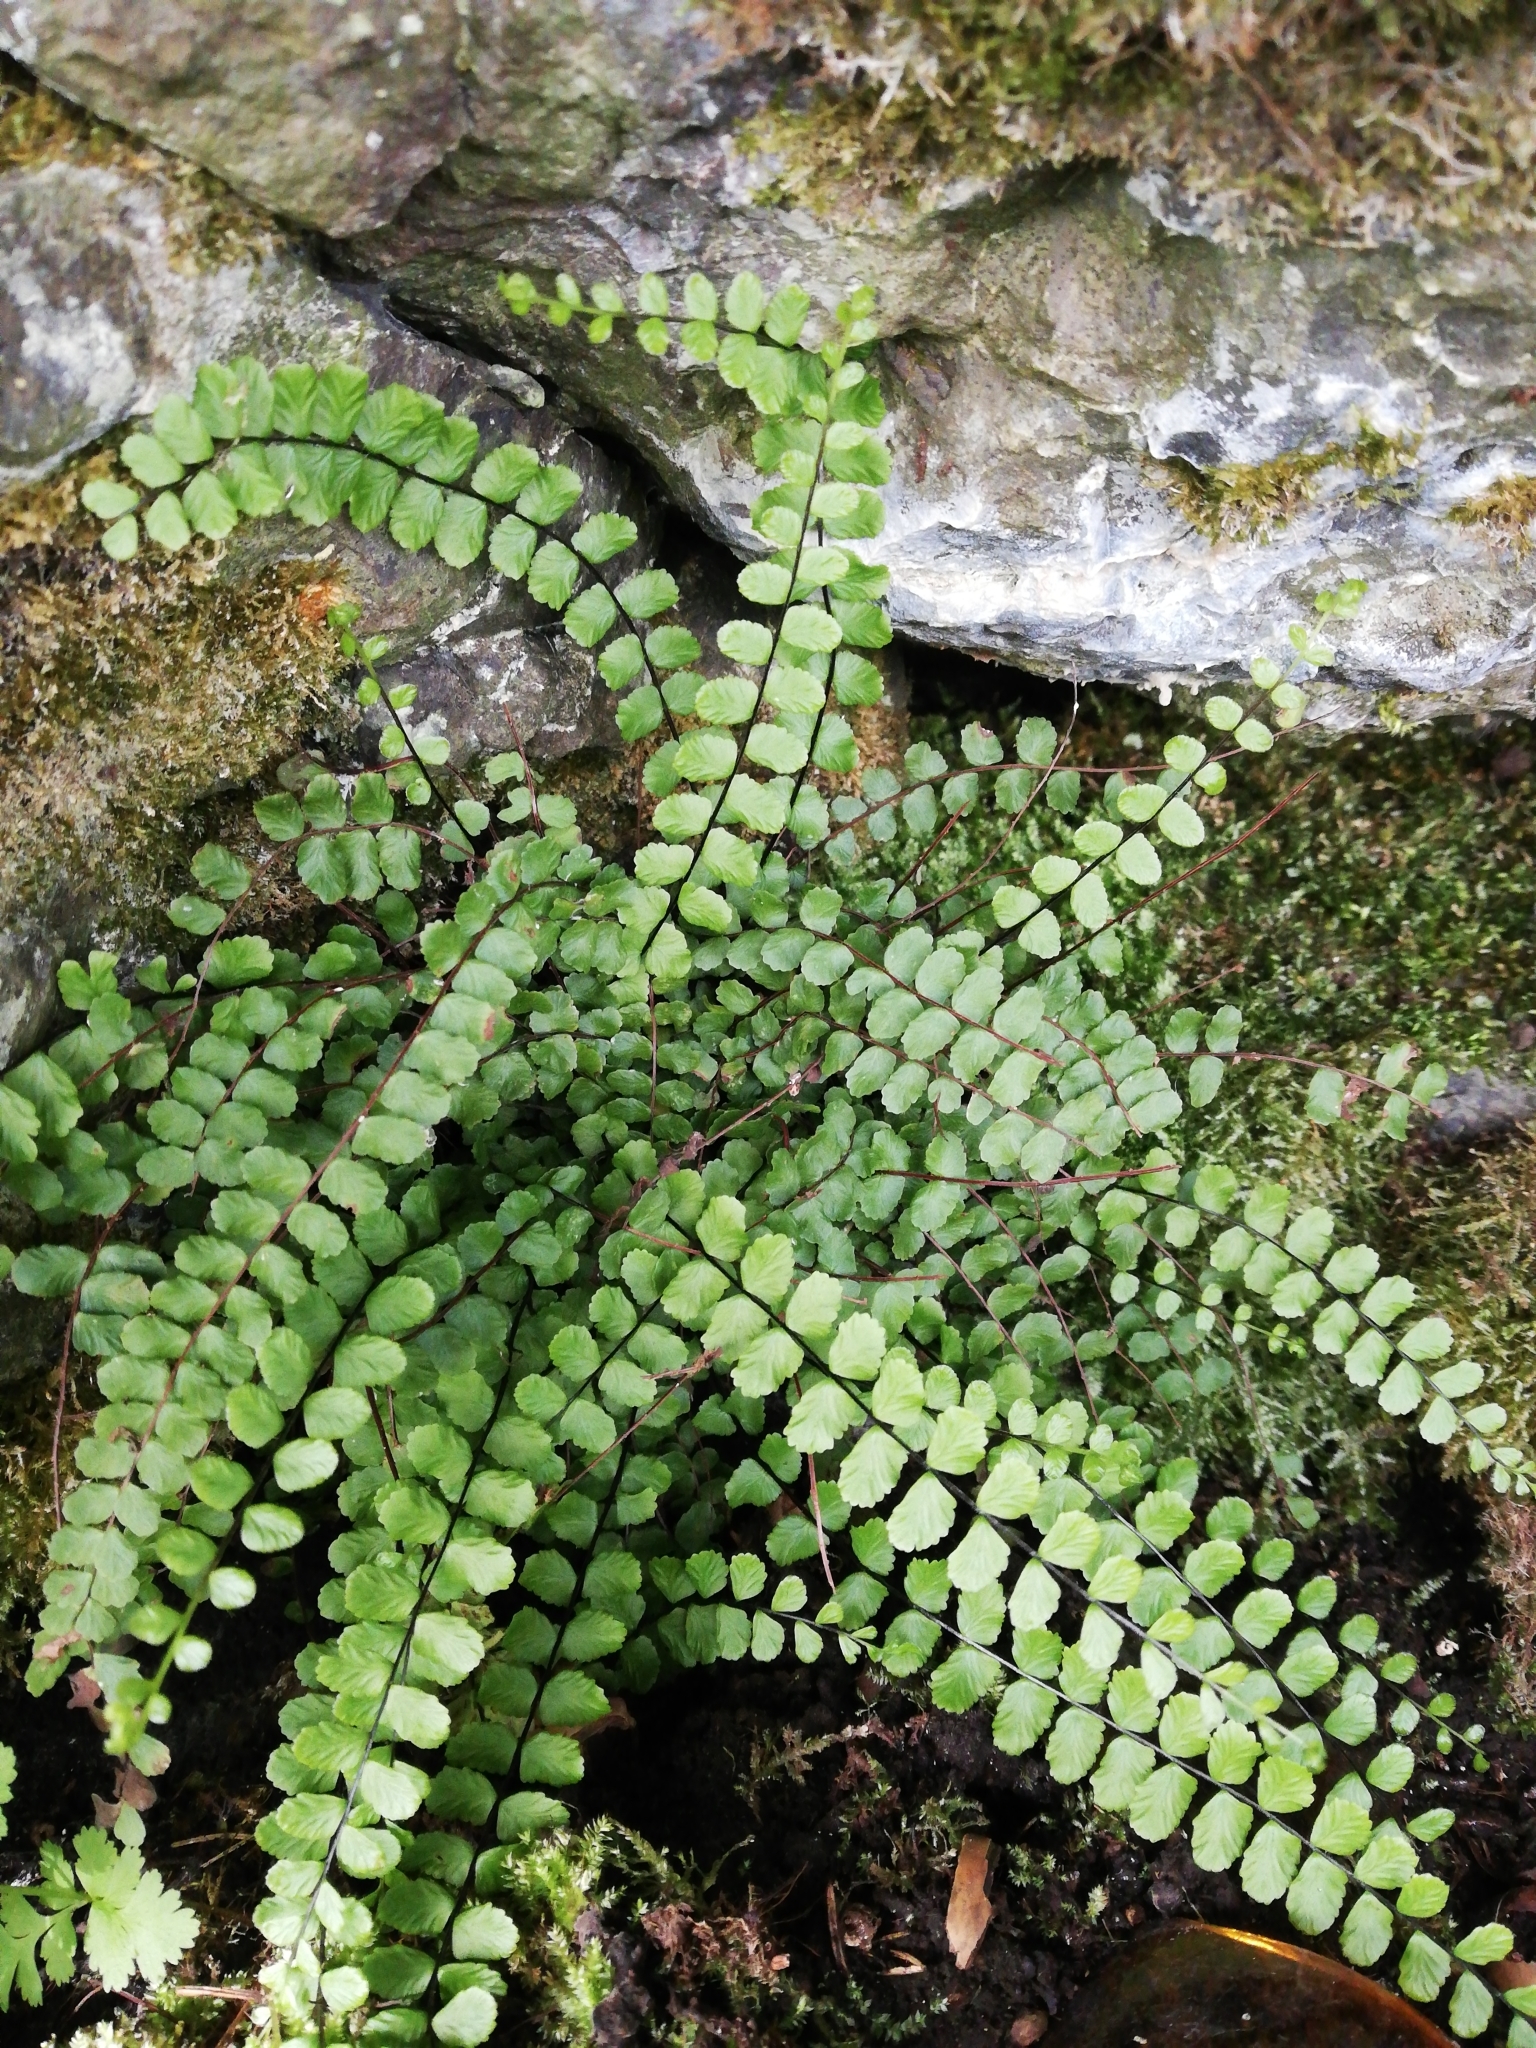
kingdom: Plantae
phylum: Tracheophyta
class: Polypodiopsida
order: Polypodiales
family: Aspleniaceae
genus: Asplenium
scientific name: Asplenium trichomanes
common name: Maidenhair spleenwort
